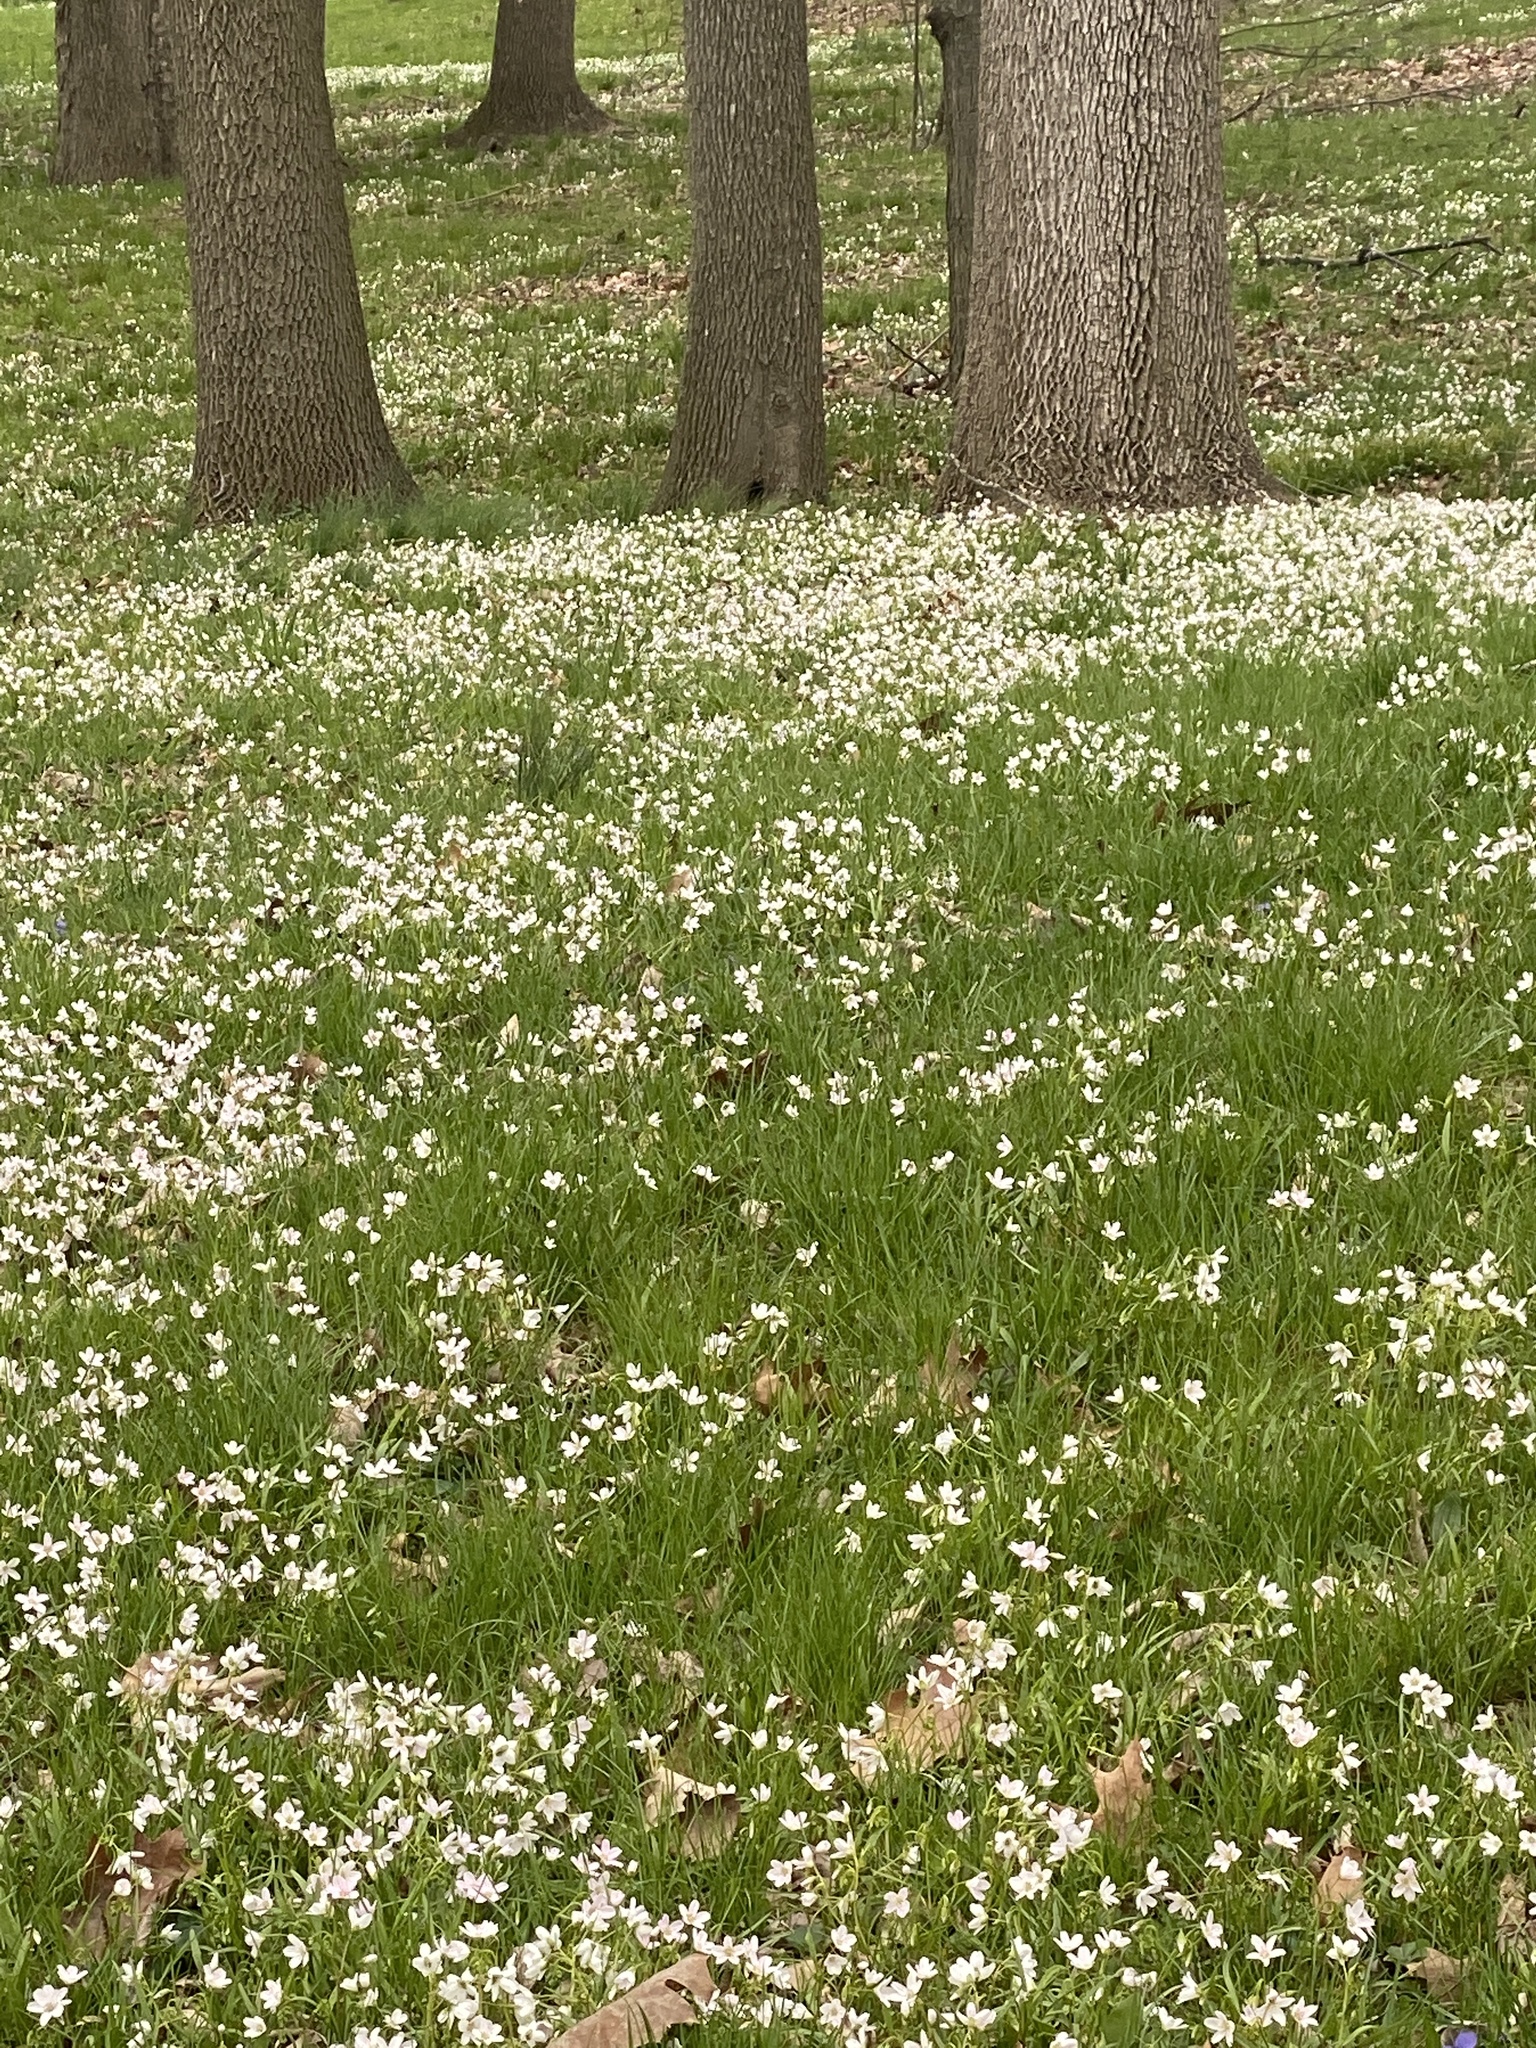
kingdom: Plantae
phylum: Tracheophyta
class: Magnoliopsida
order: Caryophyllales
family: Montiaceae
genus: Claytonia
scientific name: Claytonia virginica
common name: Virginia springbeauty
